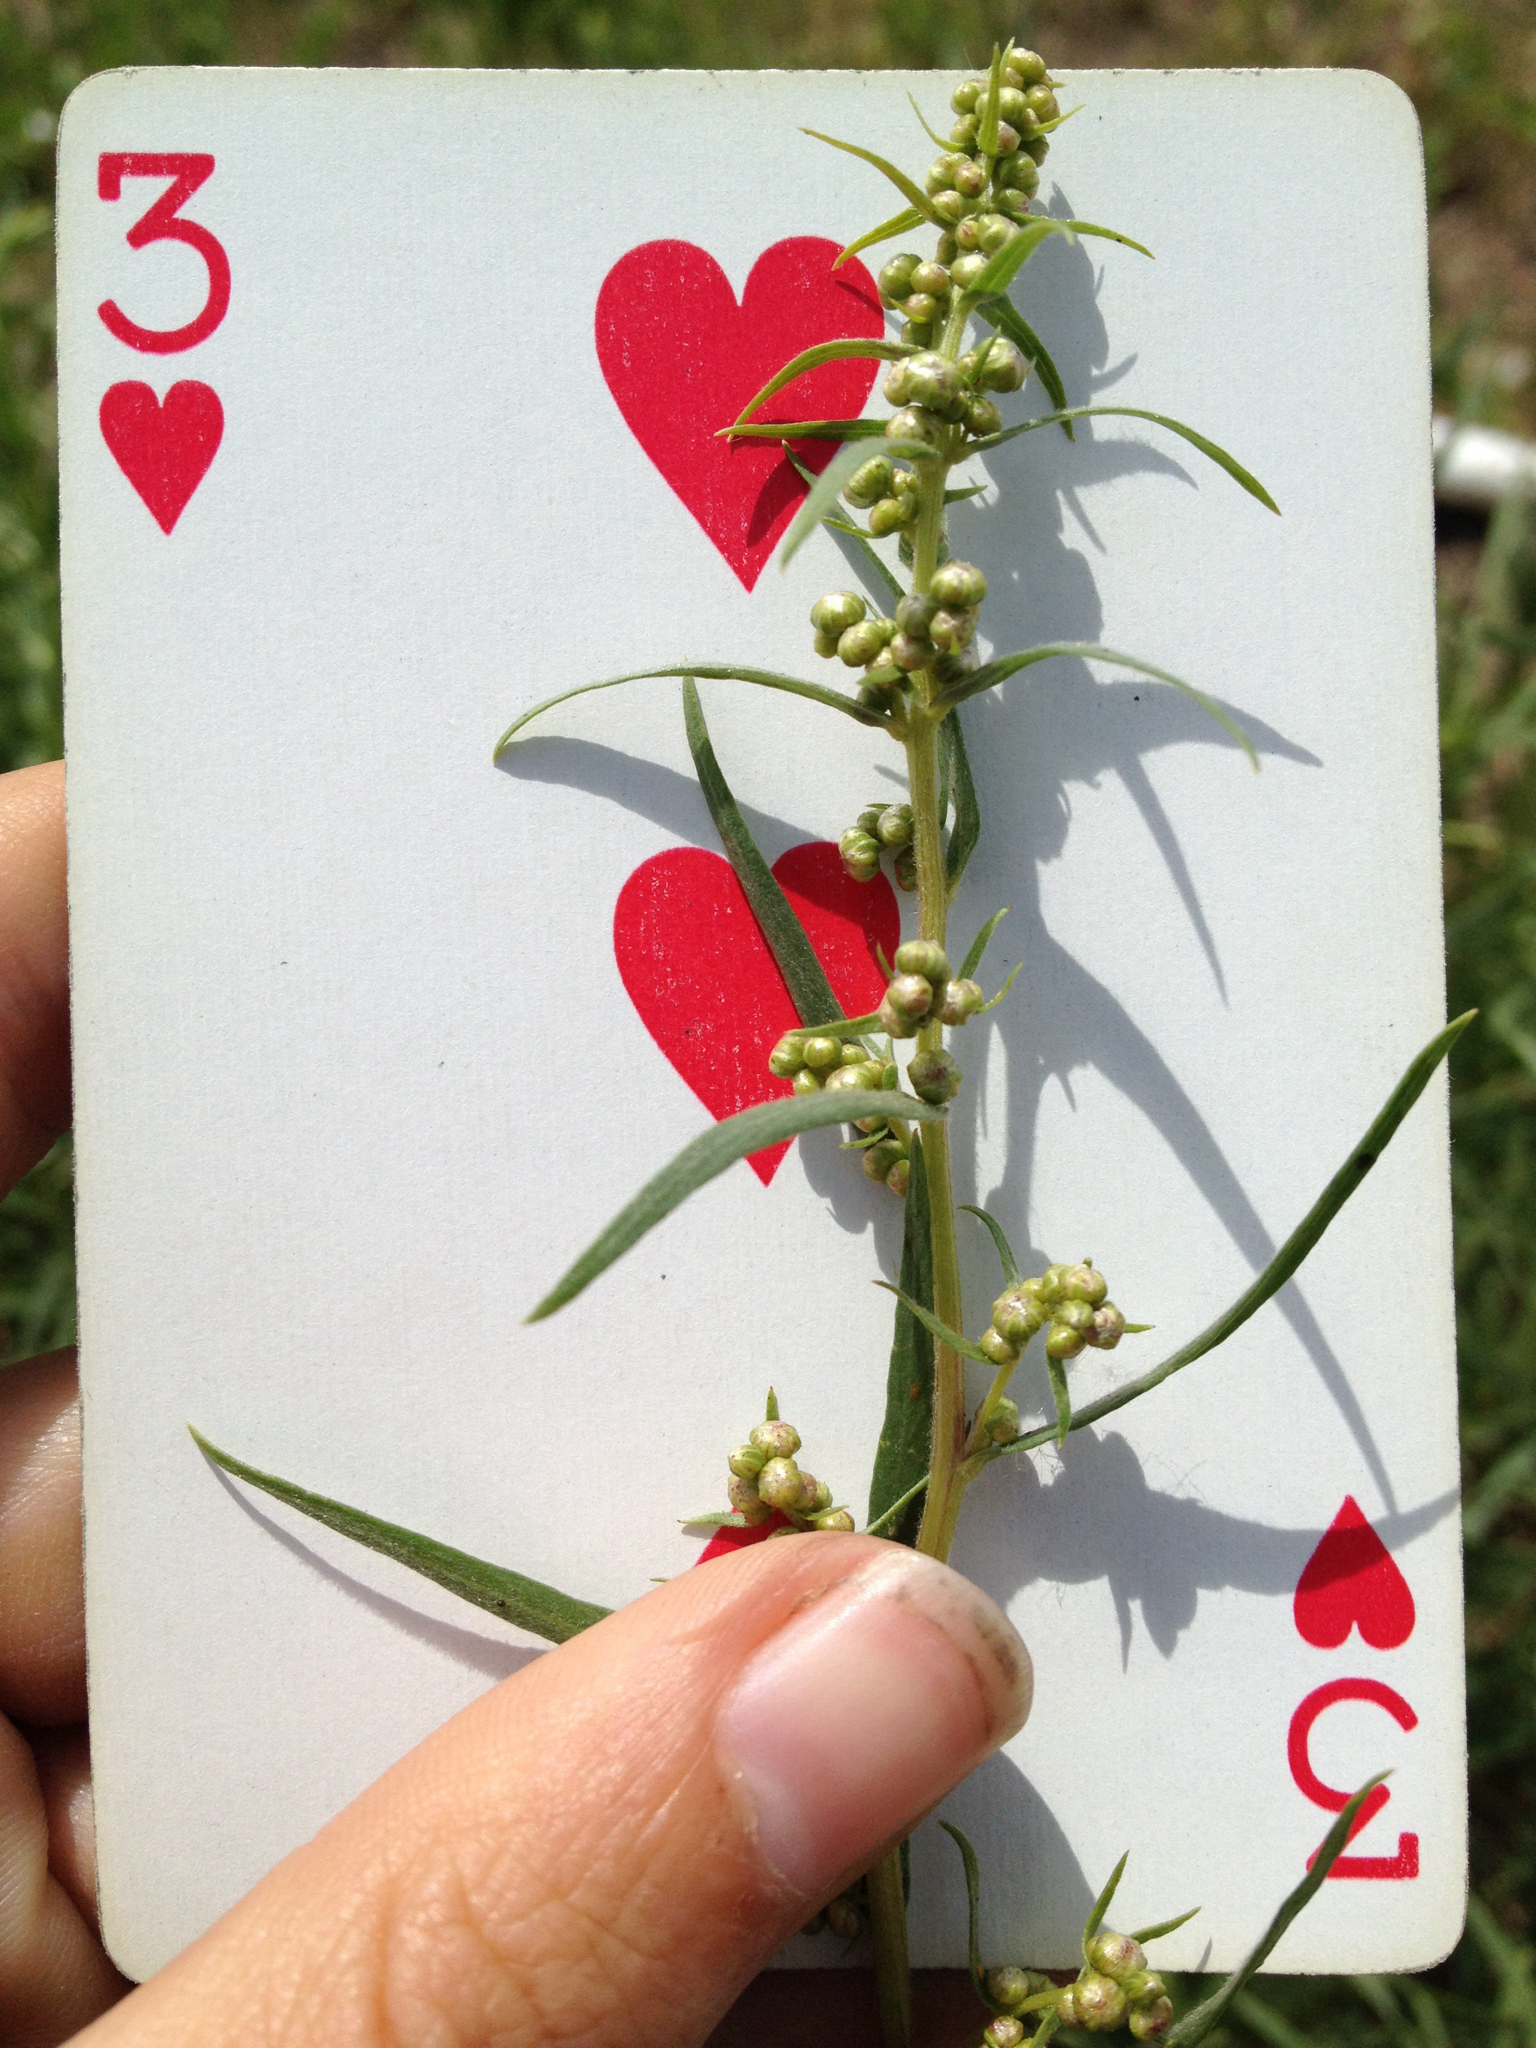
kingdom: Plantae
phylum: Tracheophyta
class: Magnoliopsida
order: Asterales
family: Asteraceae
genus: Artemisia
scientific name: Artemisia dracunculus
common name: Tarragon
